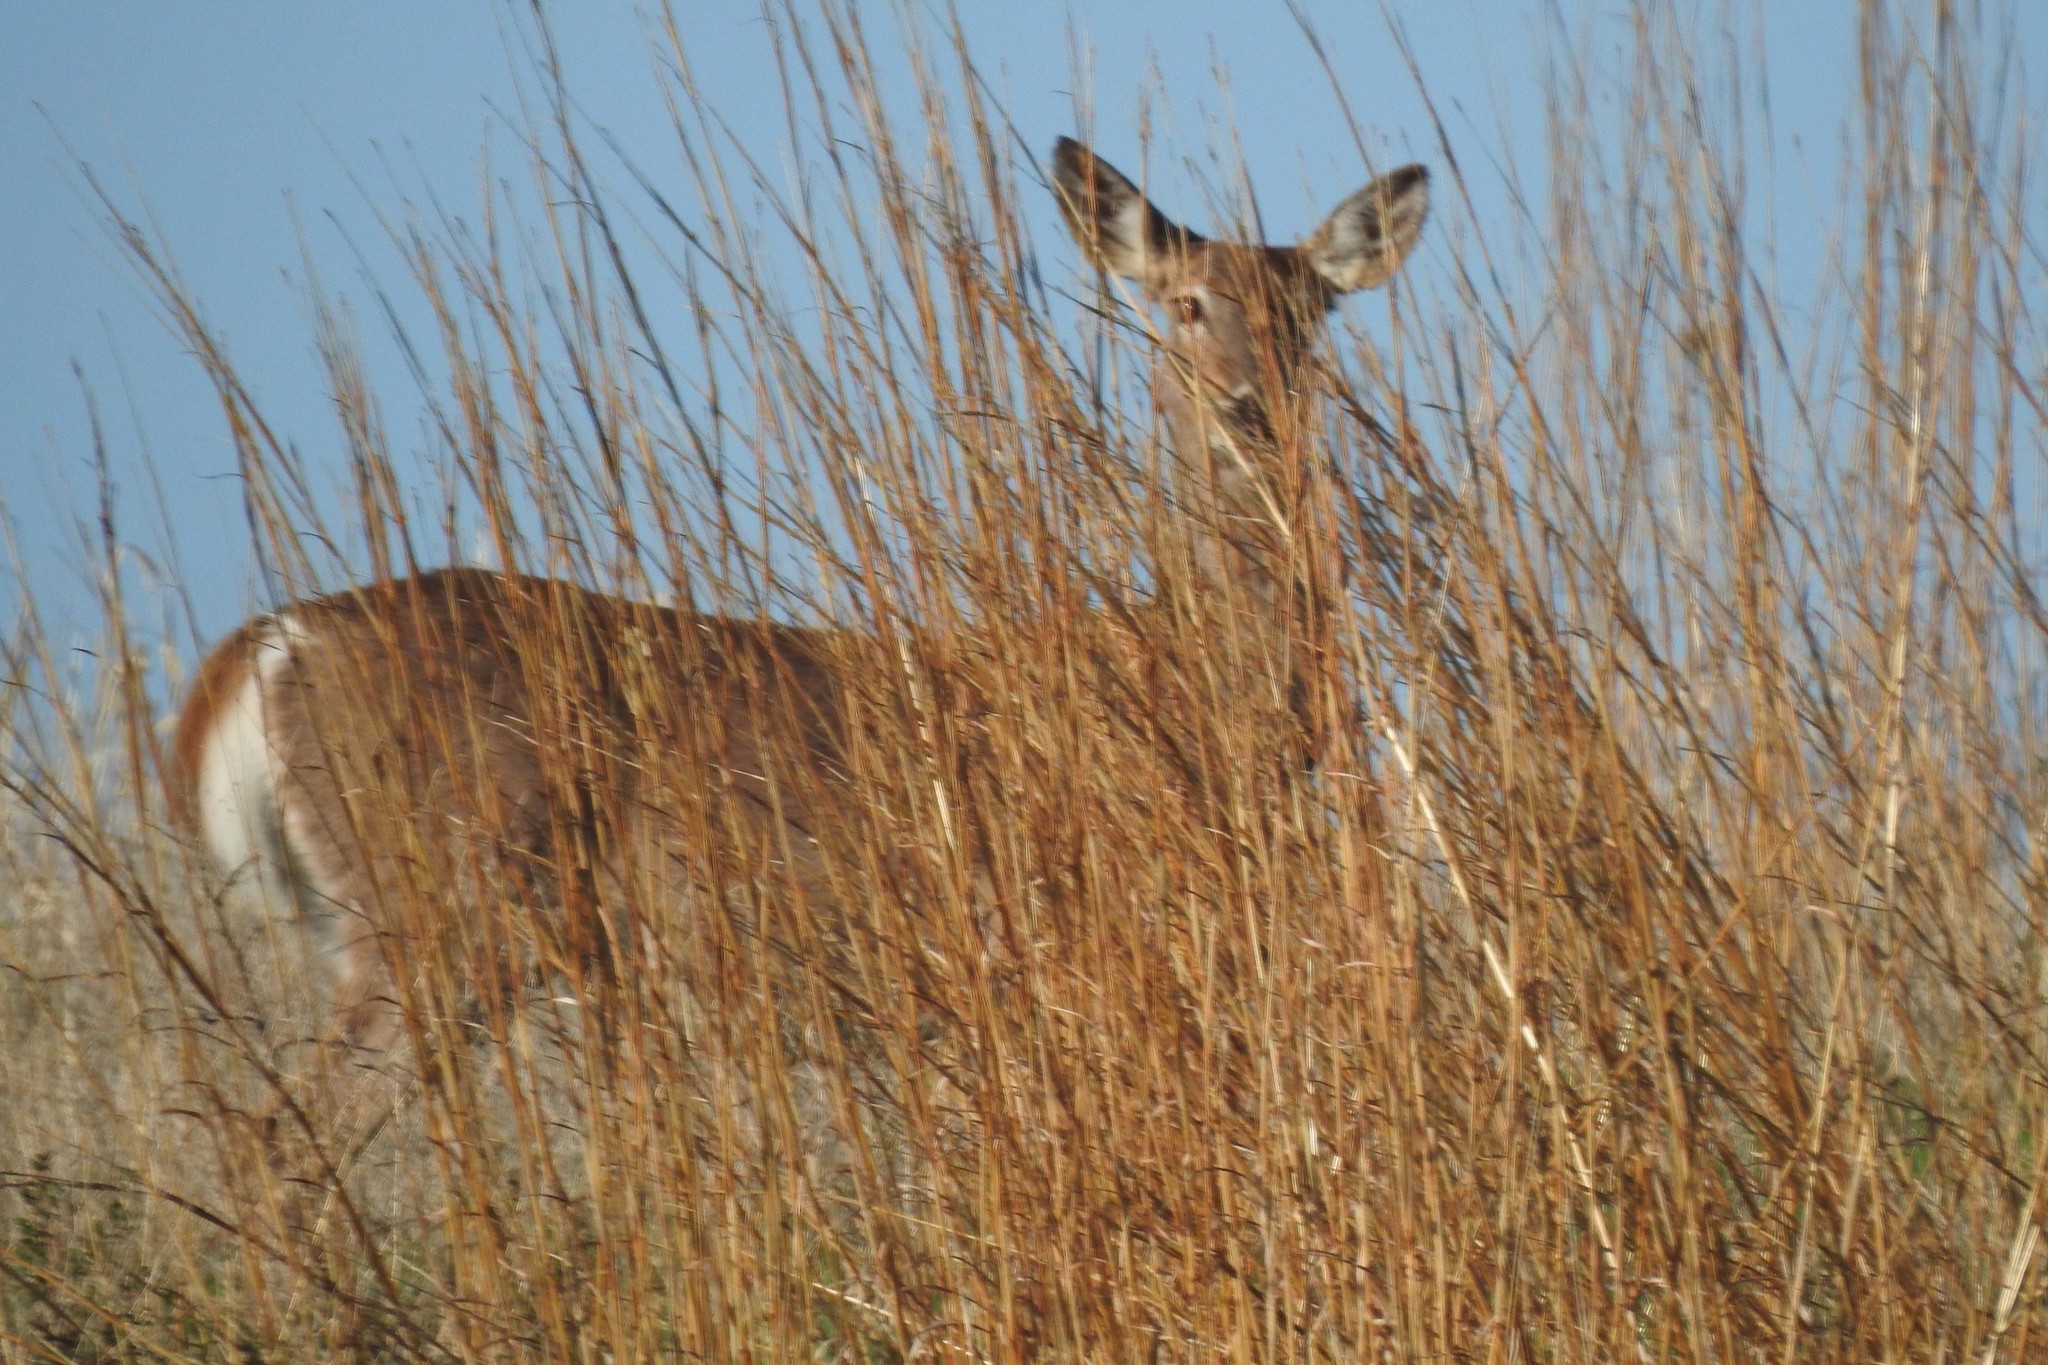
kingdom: Animalia
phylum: Chordata
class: Mammalia
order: Artiodactyla
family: Cervidae
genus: Odocoileus
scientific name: Odocoileus virginianus
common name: White-tailed deer
